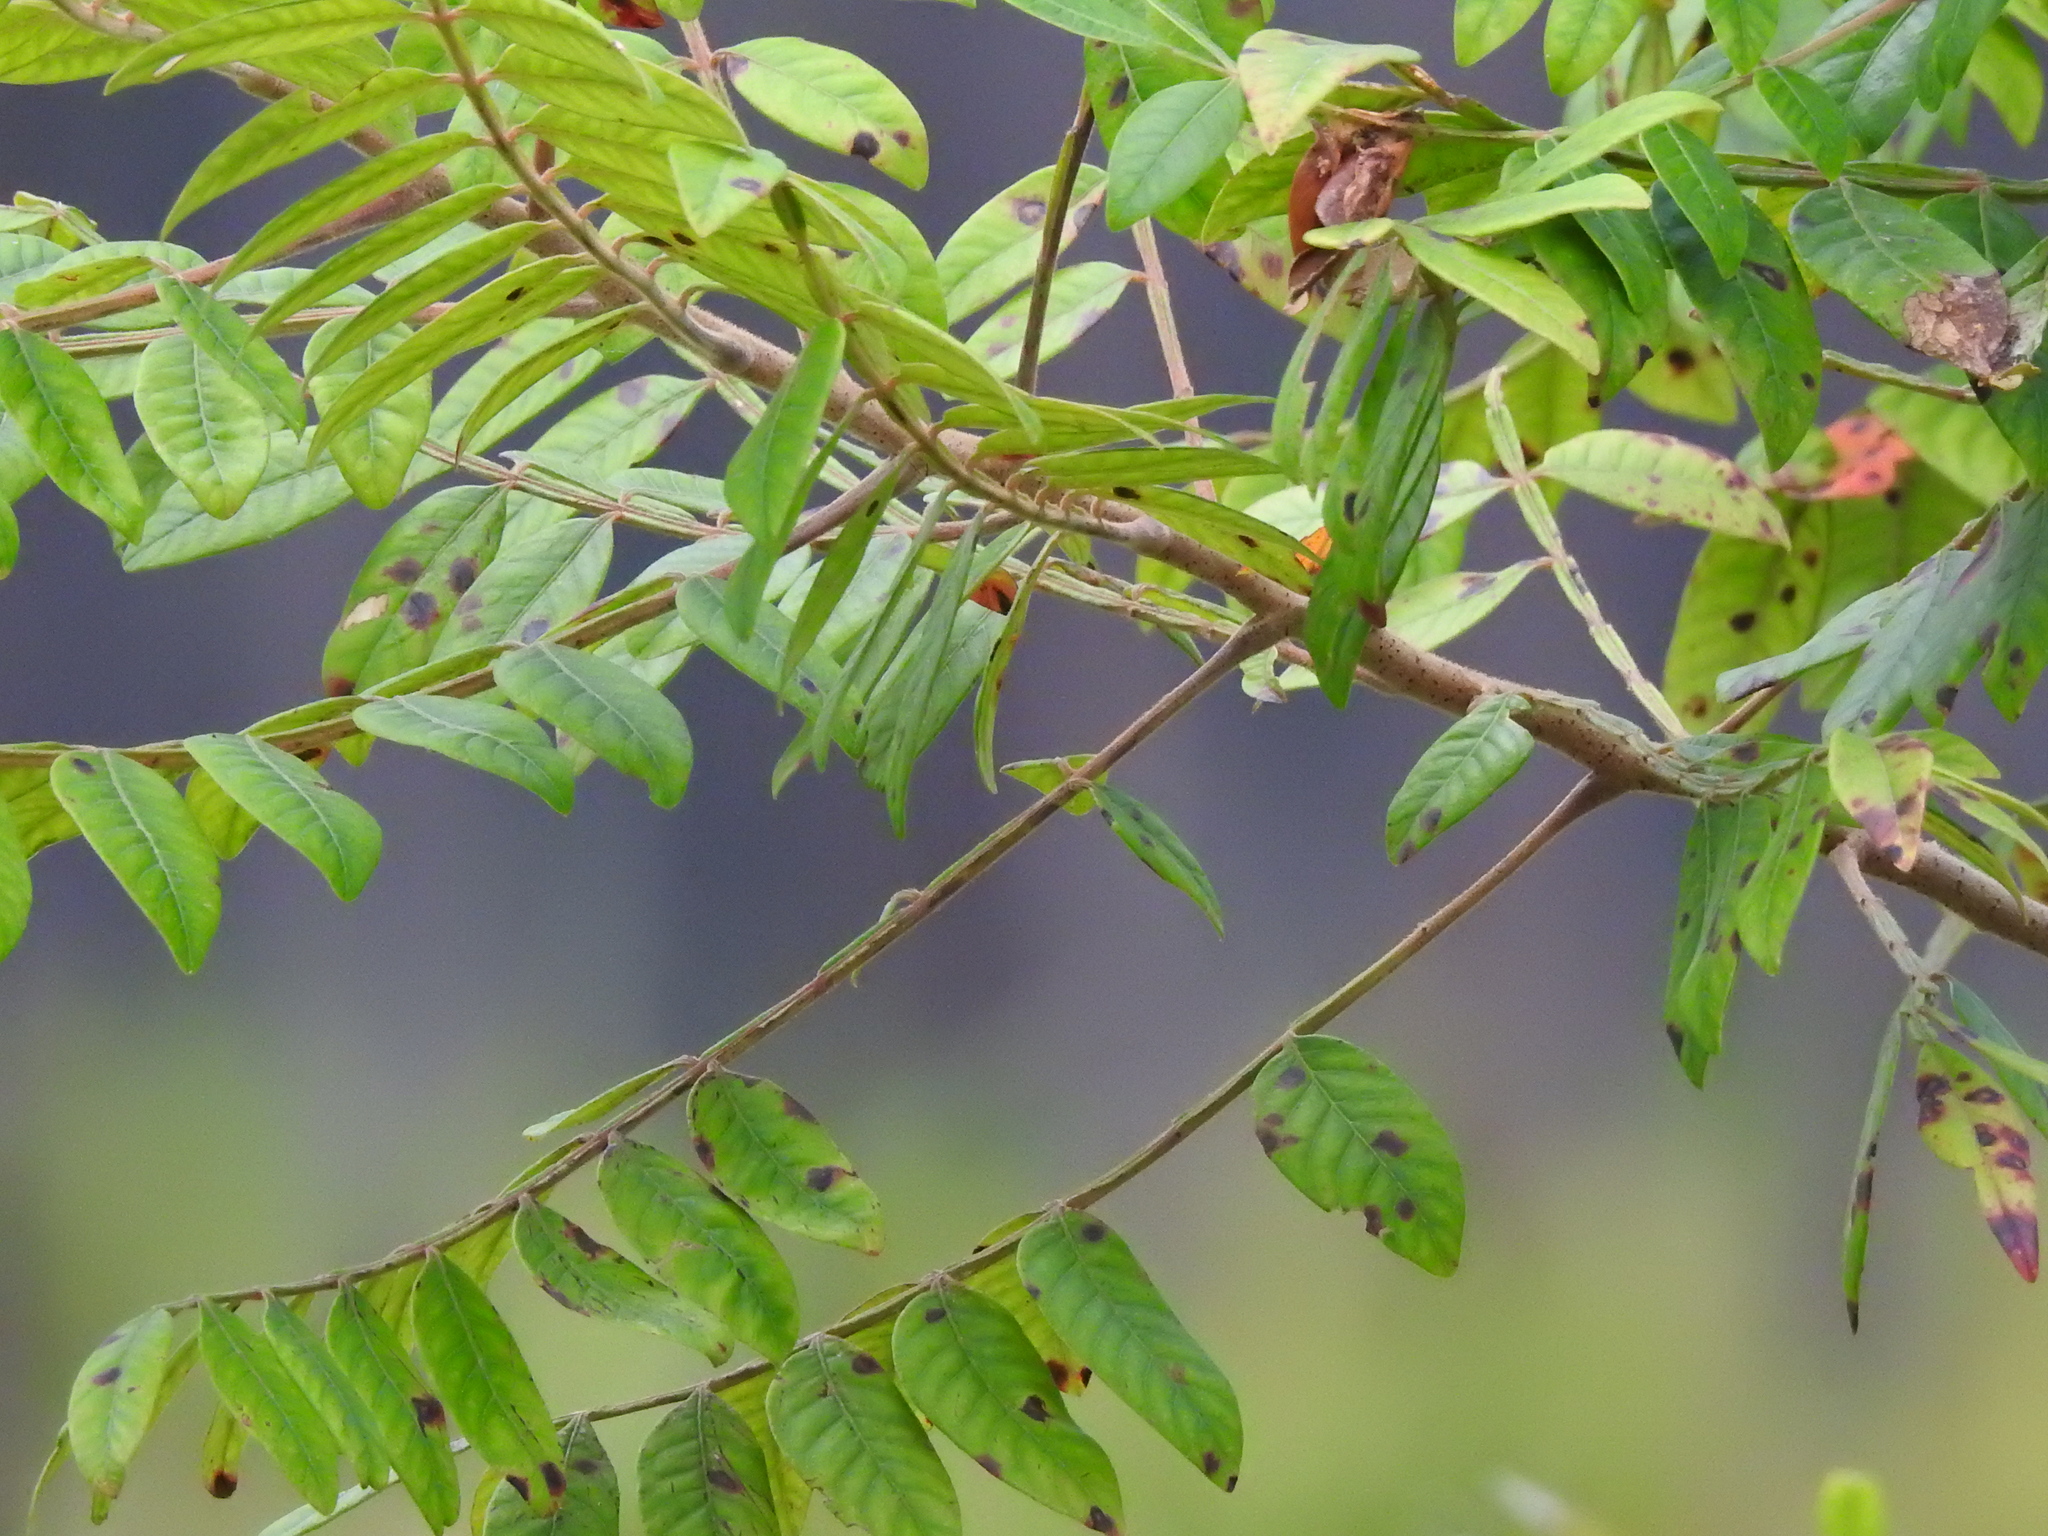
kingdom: Plantae
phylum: Tracheophyta
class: Magnoliopsida
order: Sapindales
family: Anacardiaceae
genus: Rhus
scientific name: Rhus copallina
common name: Shining sumac
